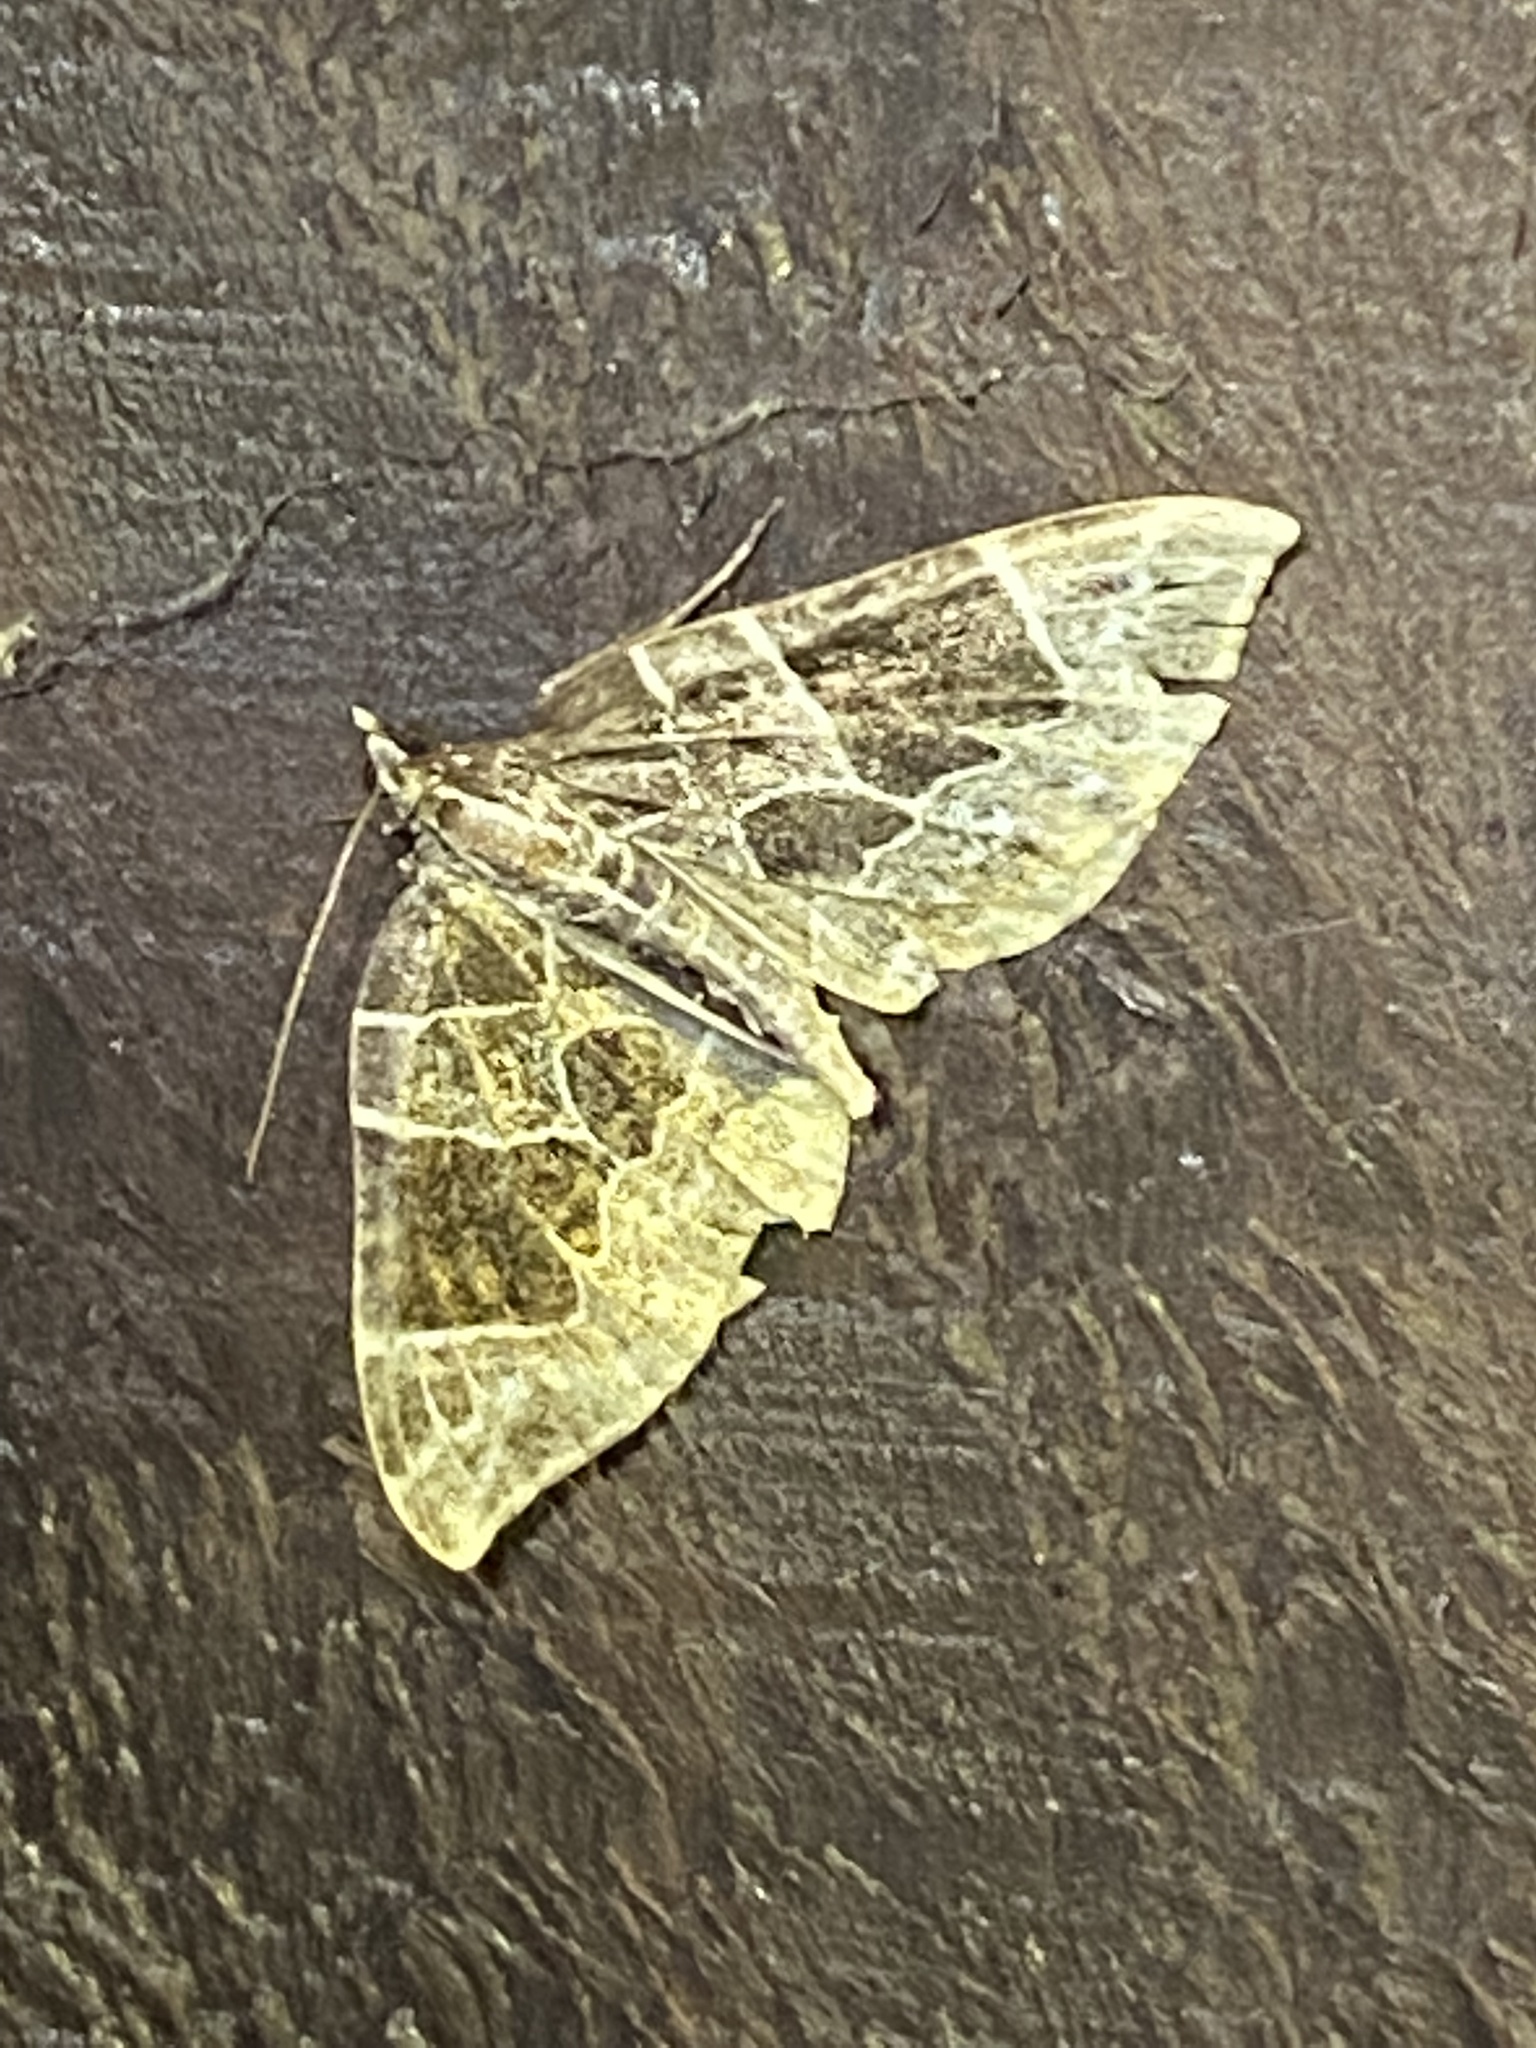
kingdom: Animalia
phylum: Arthropoda
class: Insecta
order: Lepidoptera
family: Geometridae
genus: Ecliptopera
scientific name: Ecliptopera atricolorata
